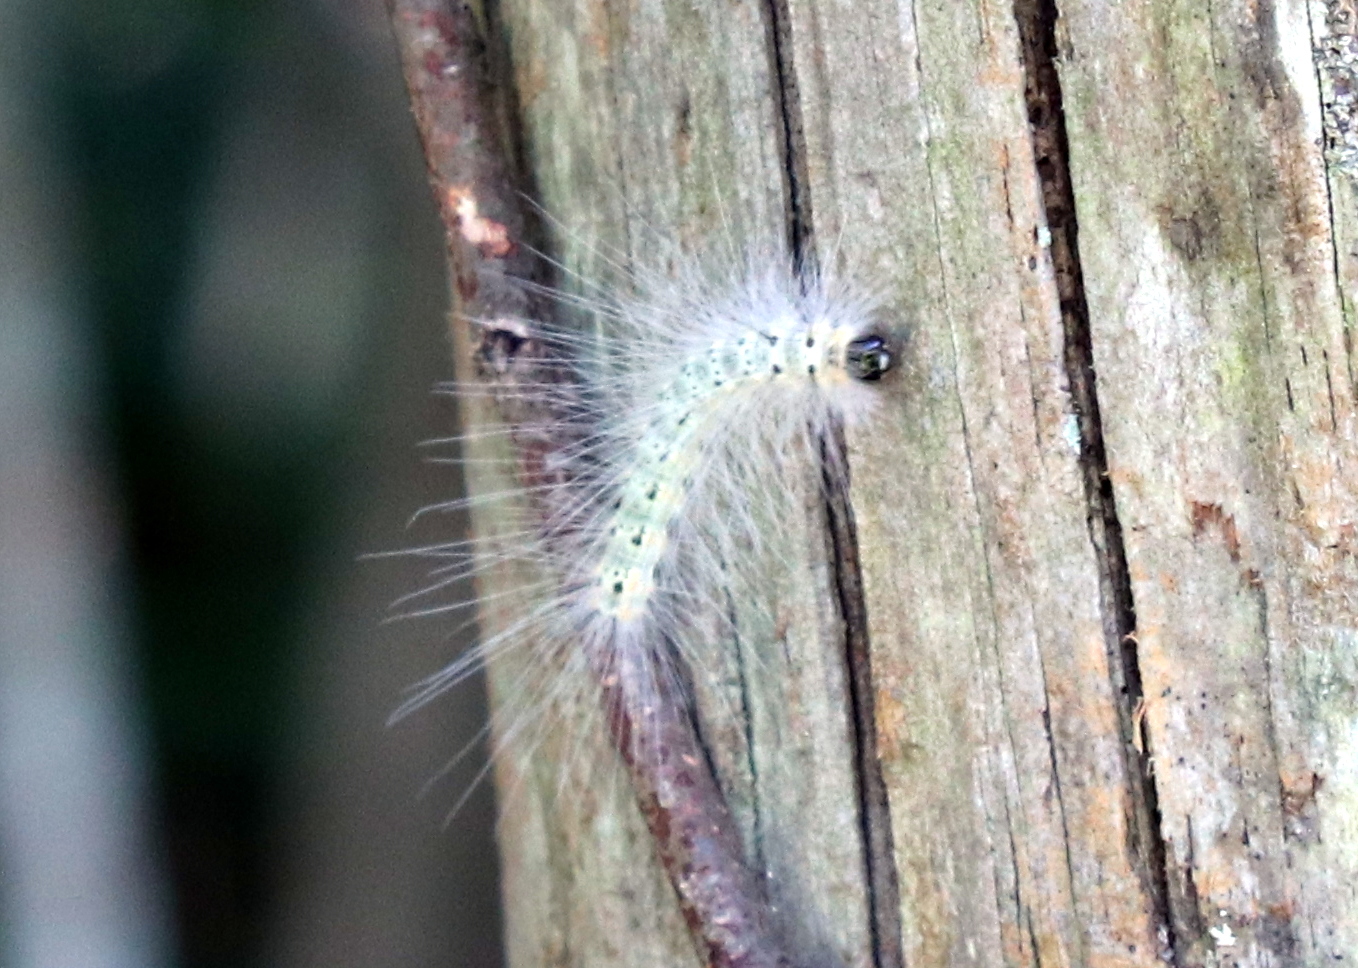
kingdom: Animalia
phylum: Arthropoda
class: Insecta
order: Lepidoptera
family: Erebidae
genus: Hyphantria
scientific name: Hyphantria cunea
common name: American white moth
